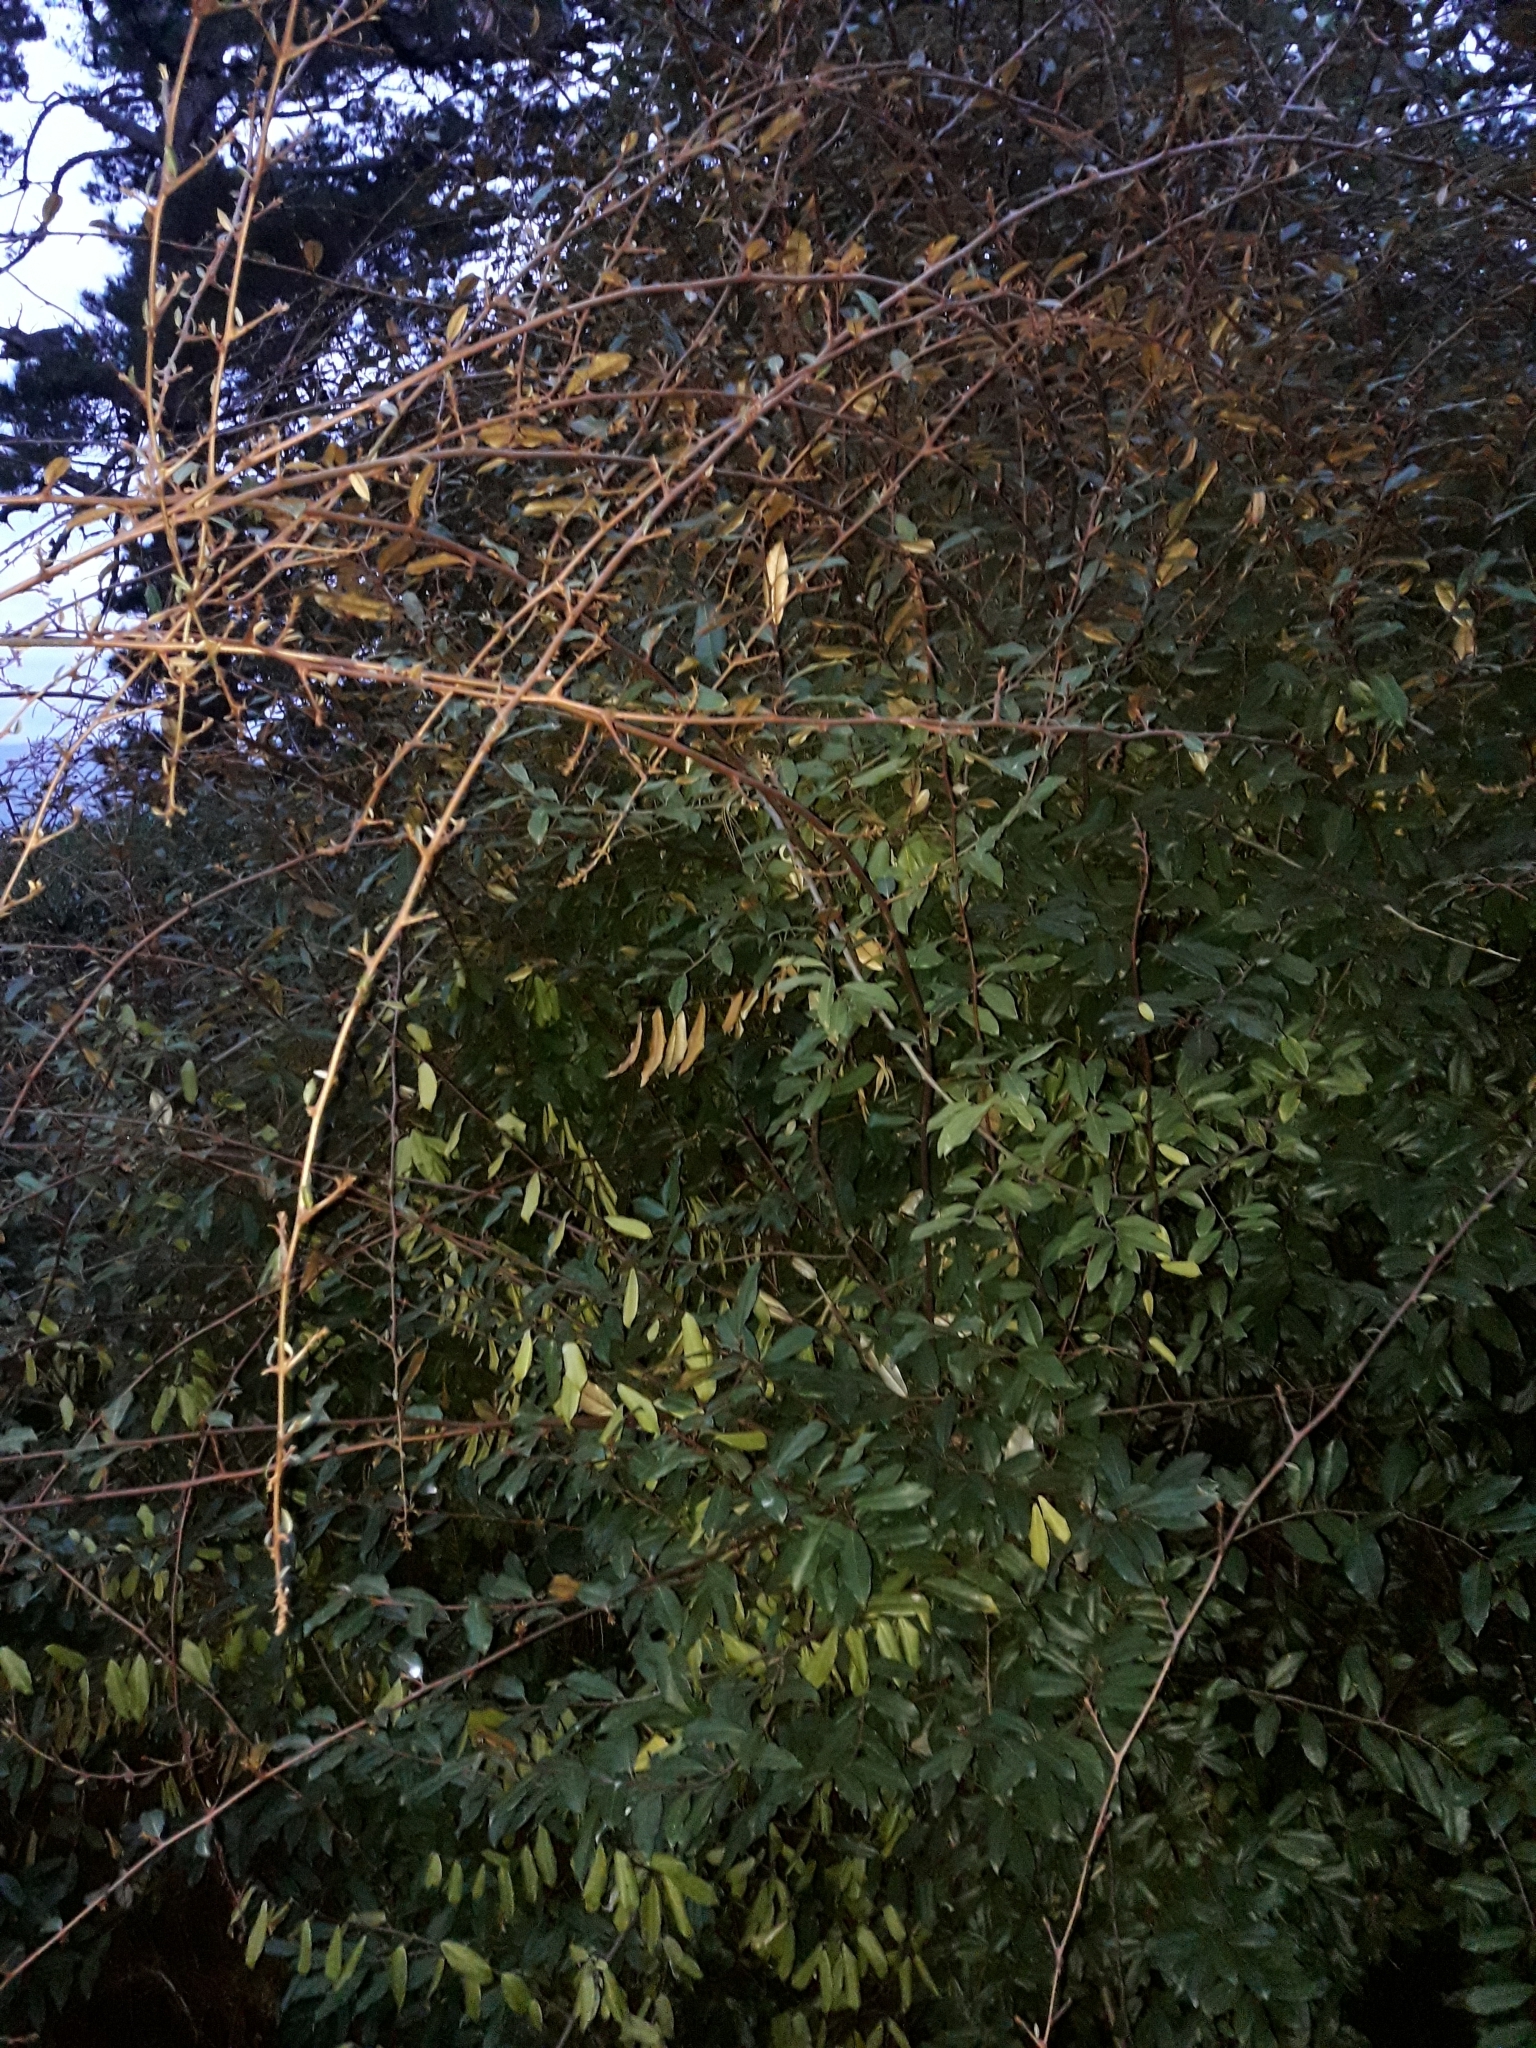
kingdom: Plantae
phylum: Tracheophyta
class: Magnoliopsida
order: Rosales
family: Elaeagnaceae
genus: Elaeagnus
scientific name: Elaeagnus reflexa
